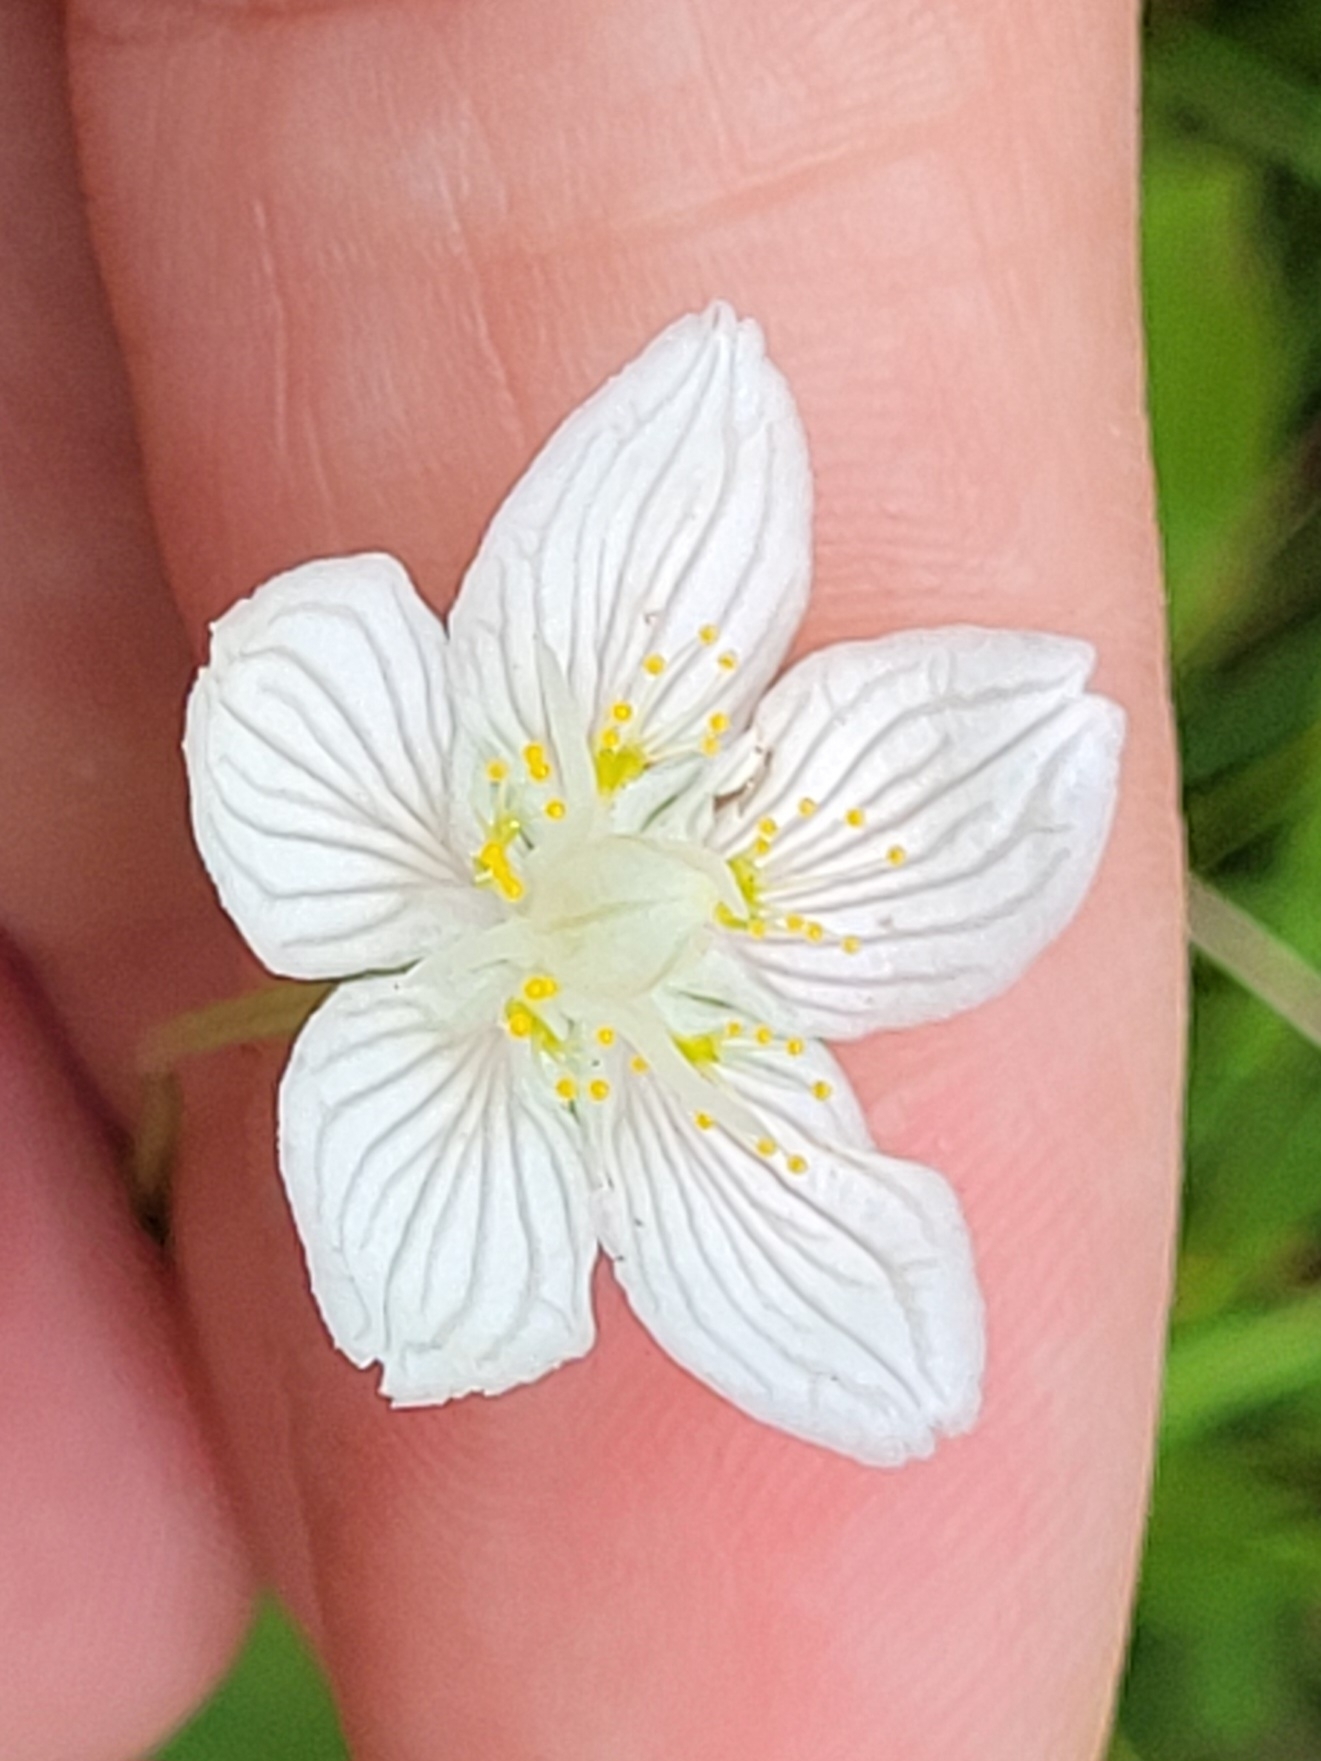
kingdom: Plantae
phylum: Tracheophyta
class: Magnoliopsida
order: Celastrales
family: Parnassiaceae
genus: Parnassia
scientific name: Parnassia palustris
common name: Grass-of-parnassus
